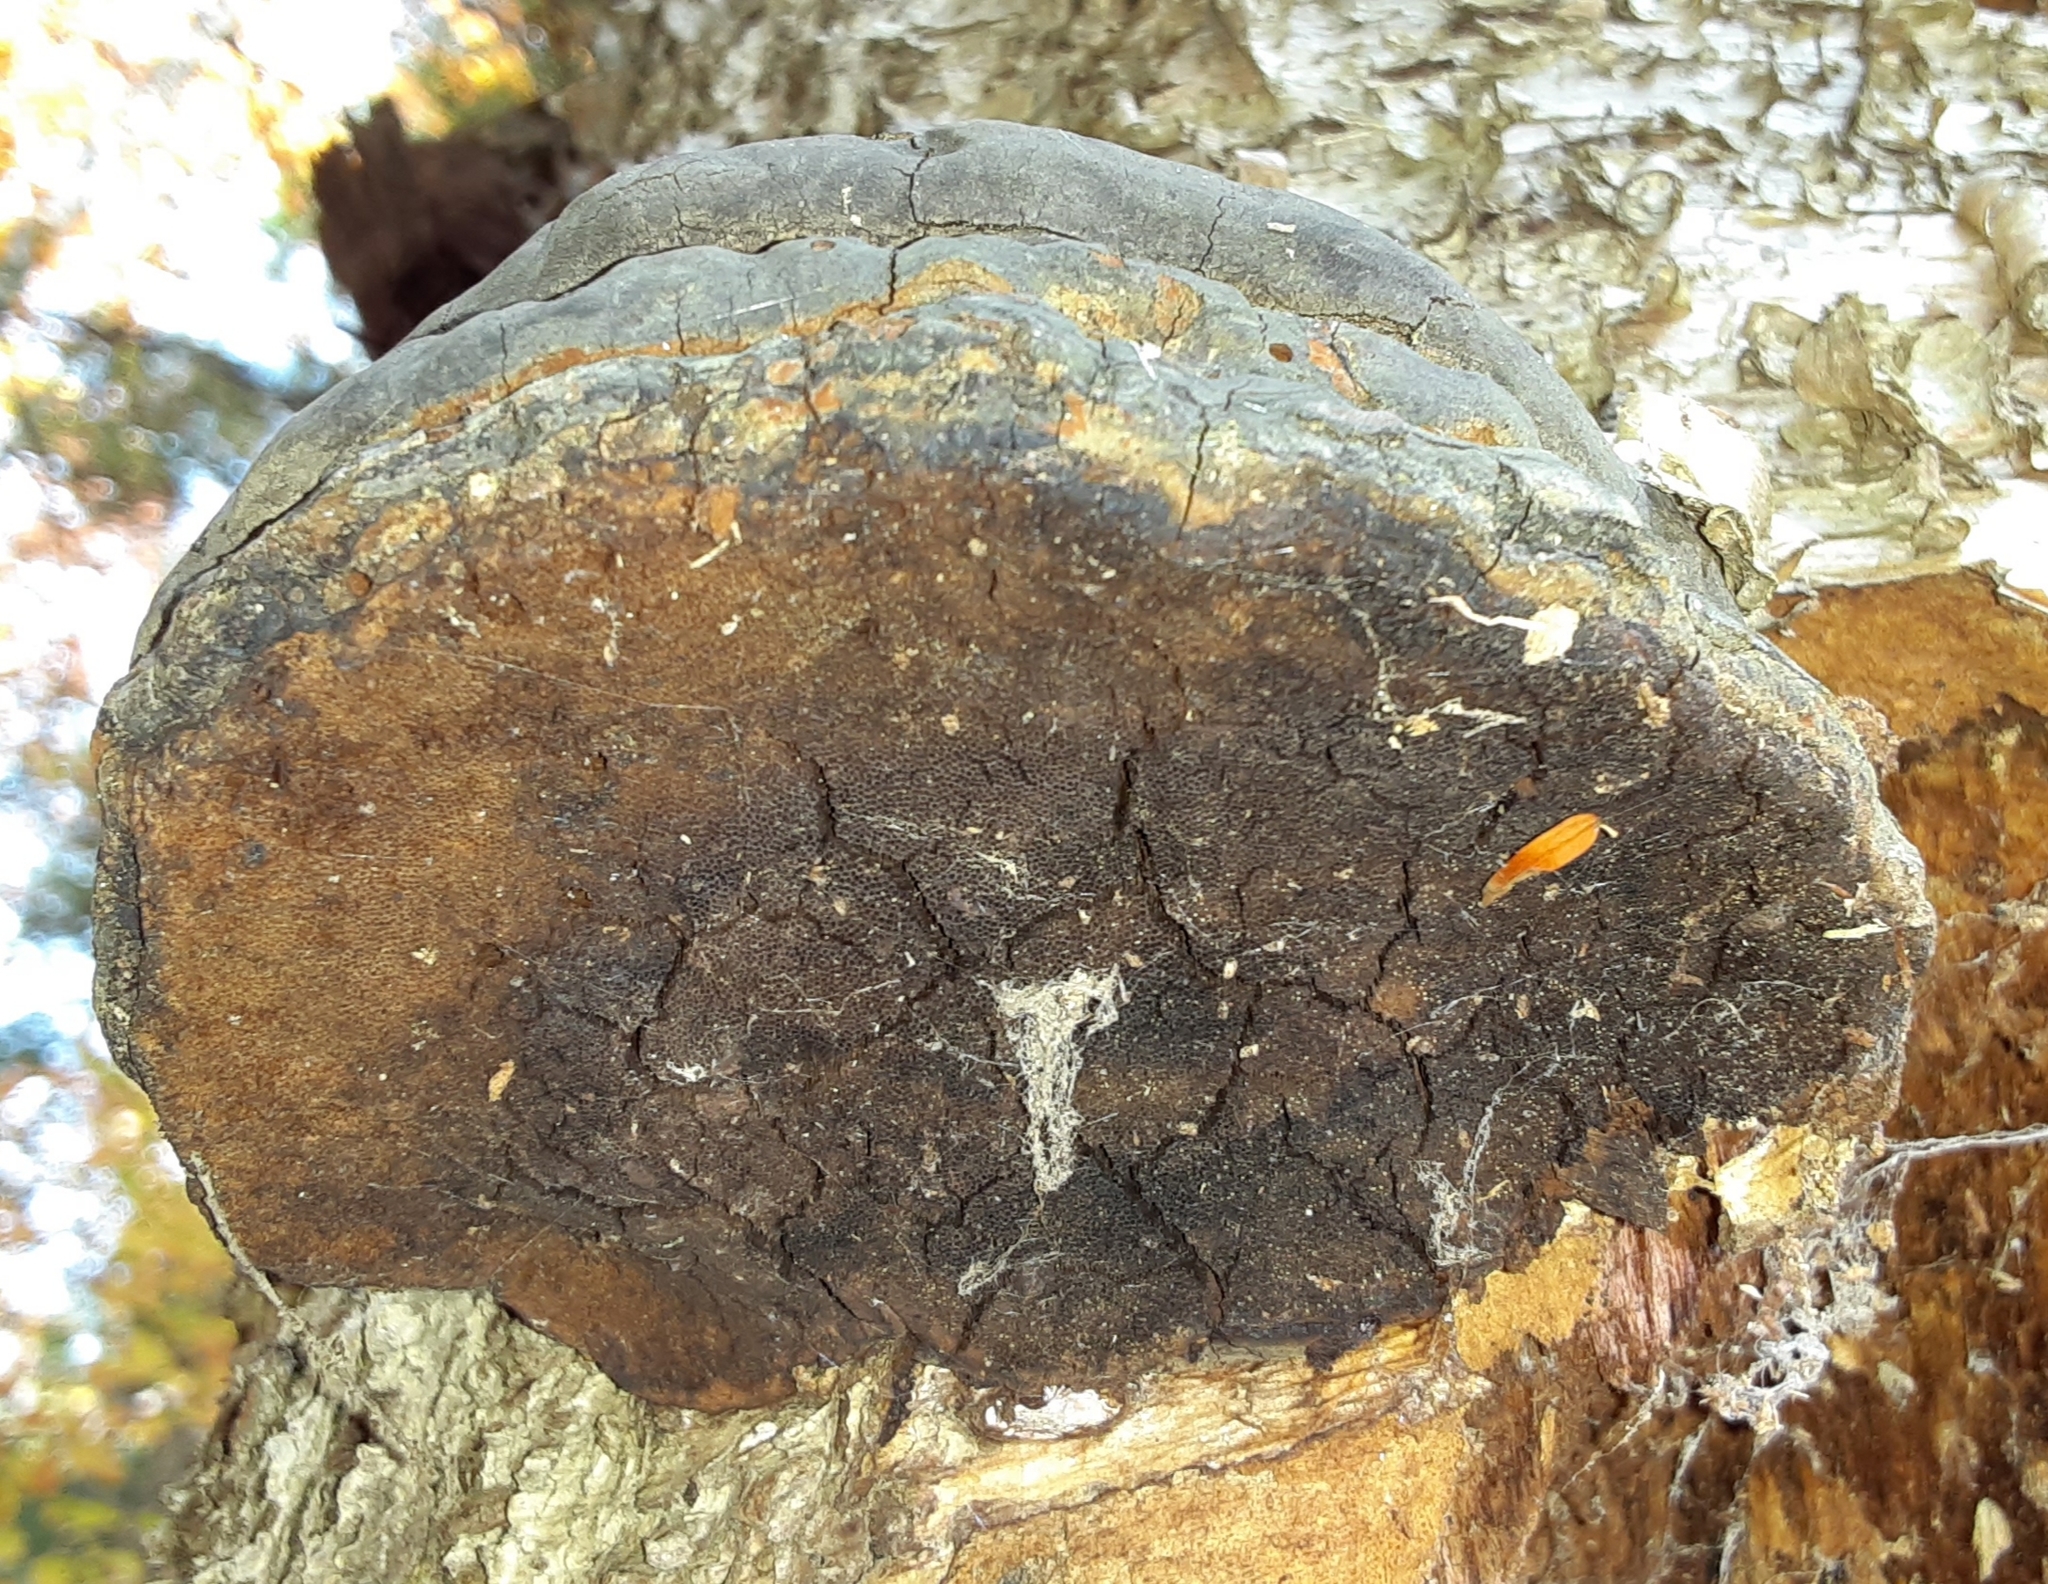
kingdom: Fungi
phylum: Basidiomycota
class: Agaricomycetes
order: Polyporales
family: Polyporaceae
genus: Fomes
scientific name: Fomes fomentarius
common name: Hoof fungus
